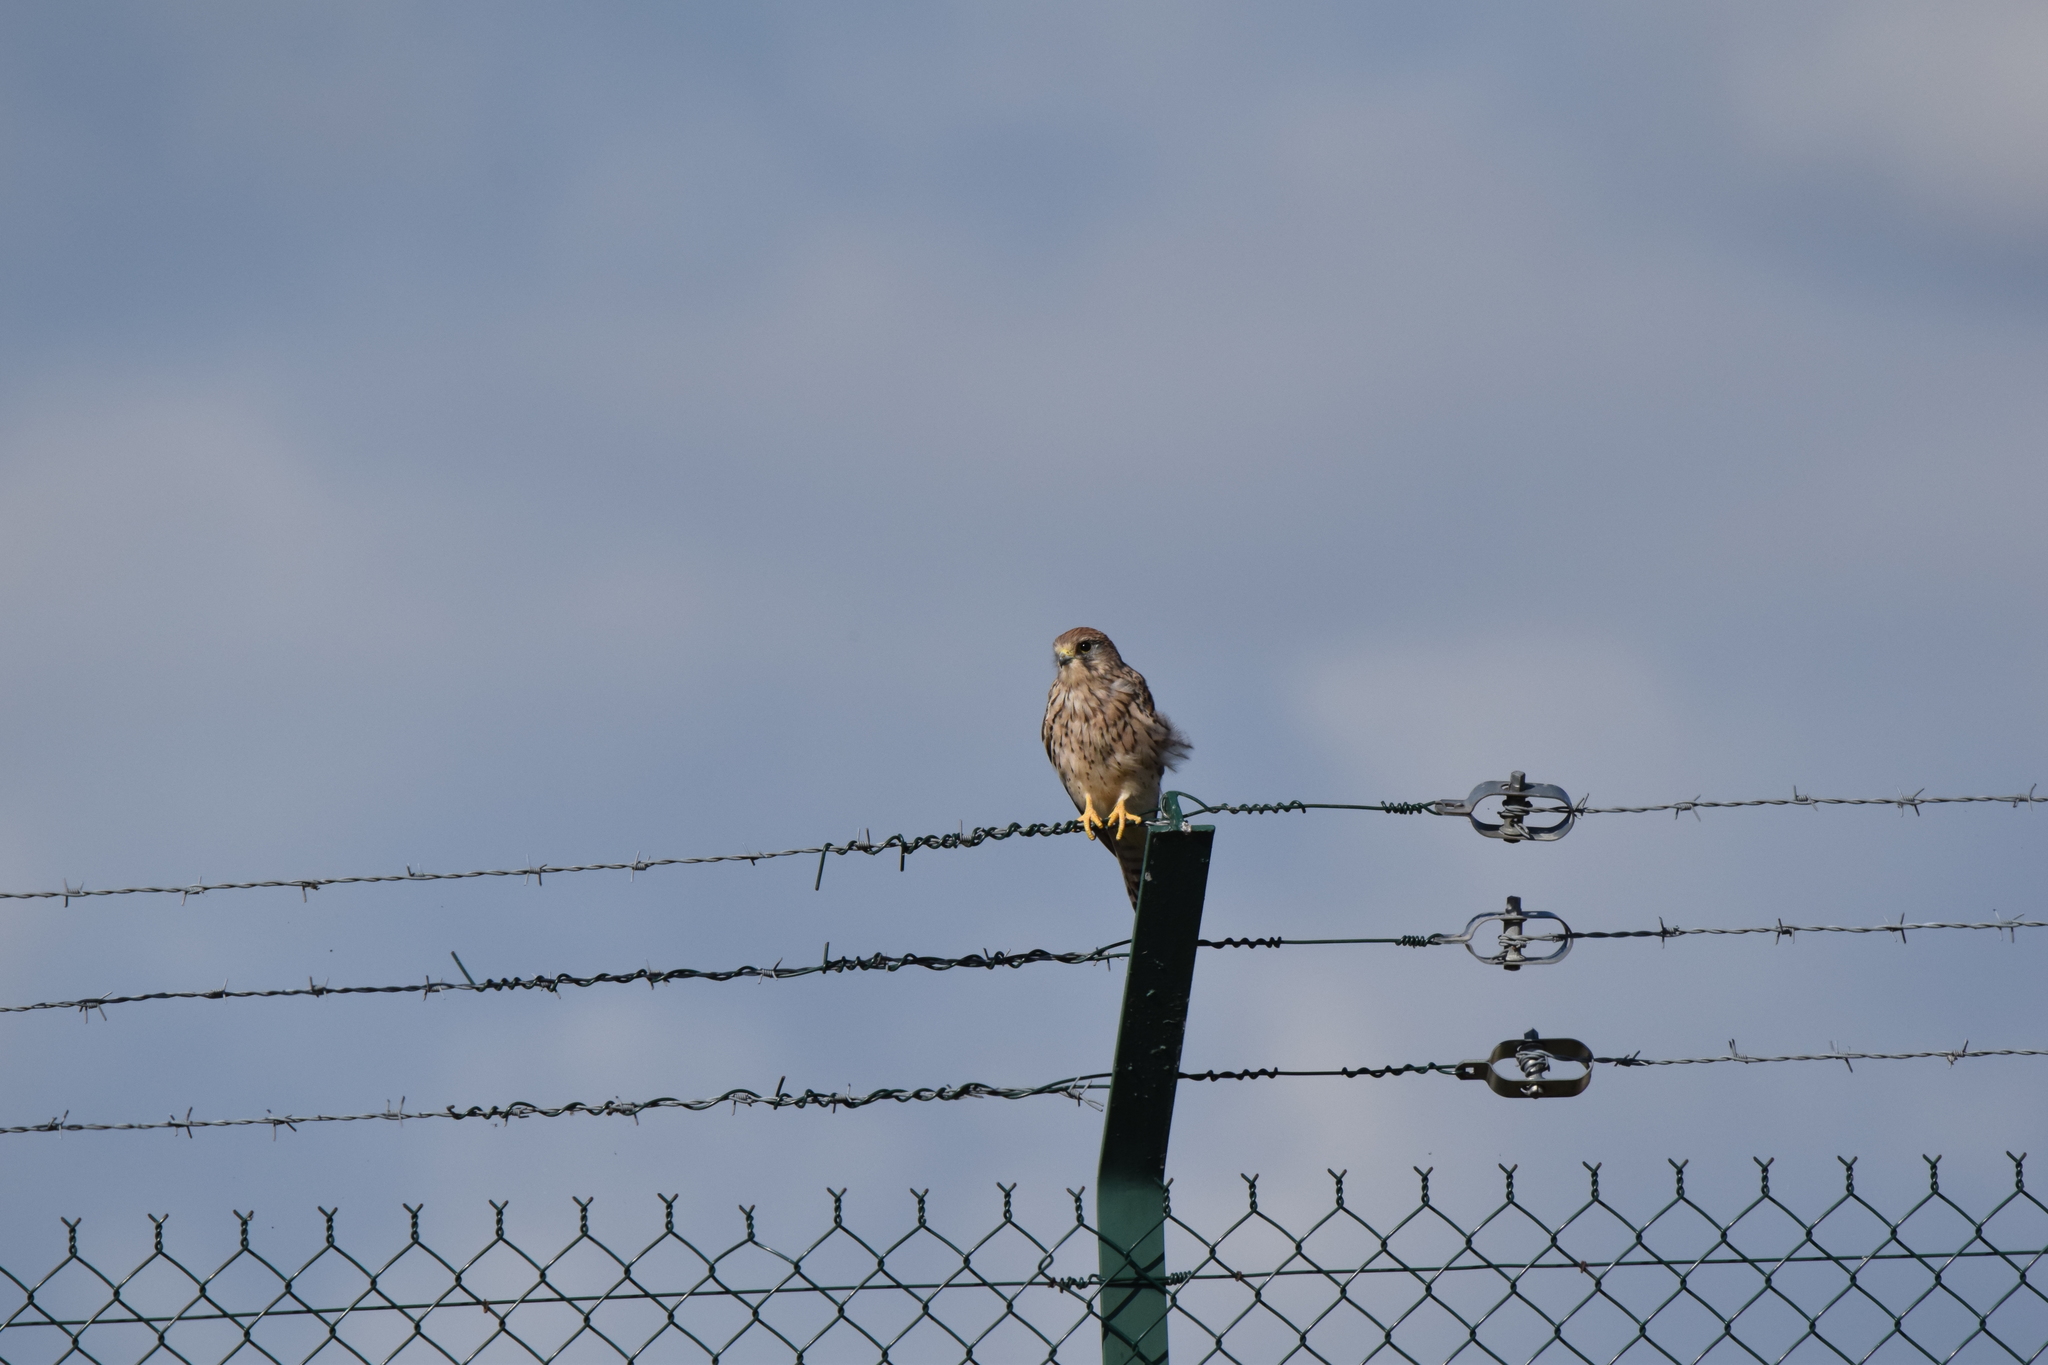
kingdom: Animalia
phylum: Chordata
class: Aves
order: Falconiformes
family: Falconidae
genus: Falco
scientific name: Falco tinnunculus
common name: Common kestrel
